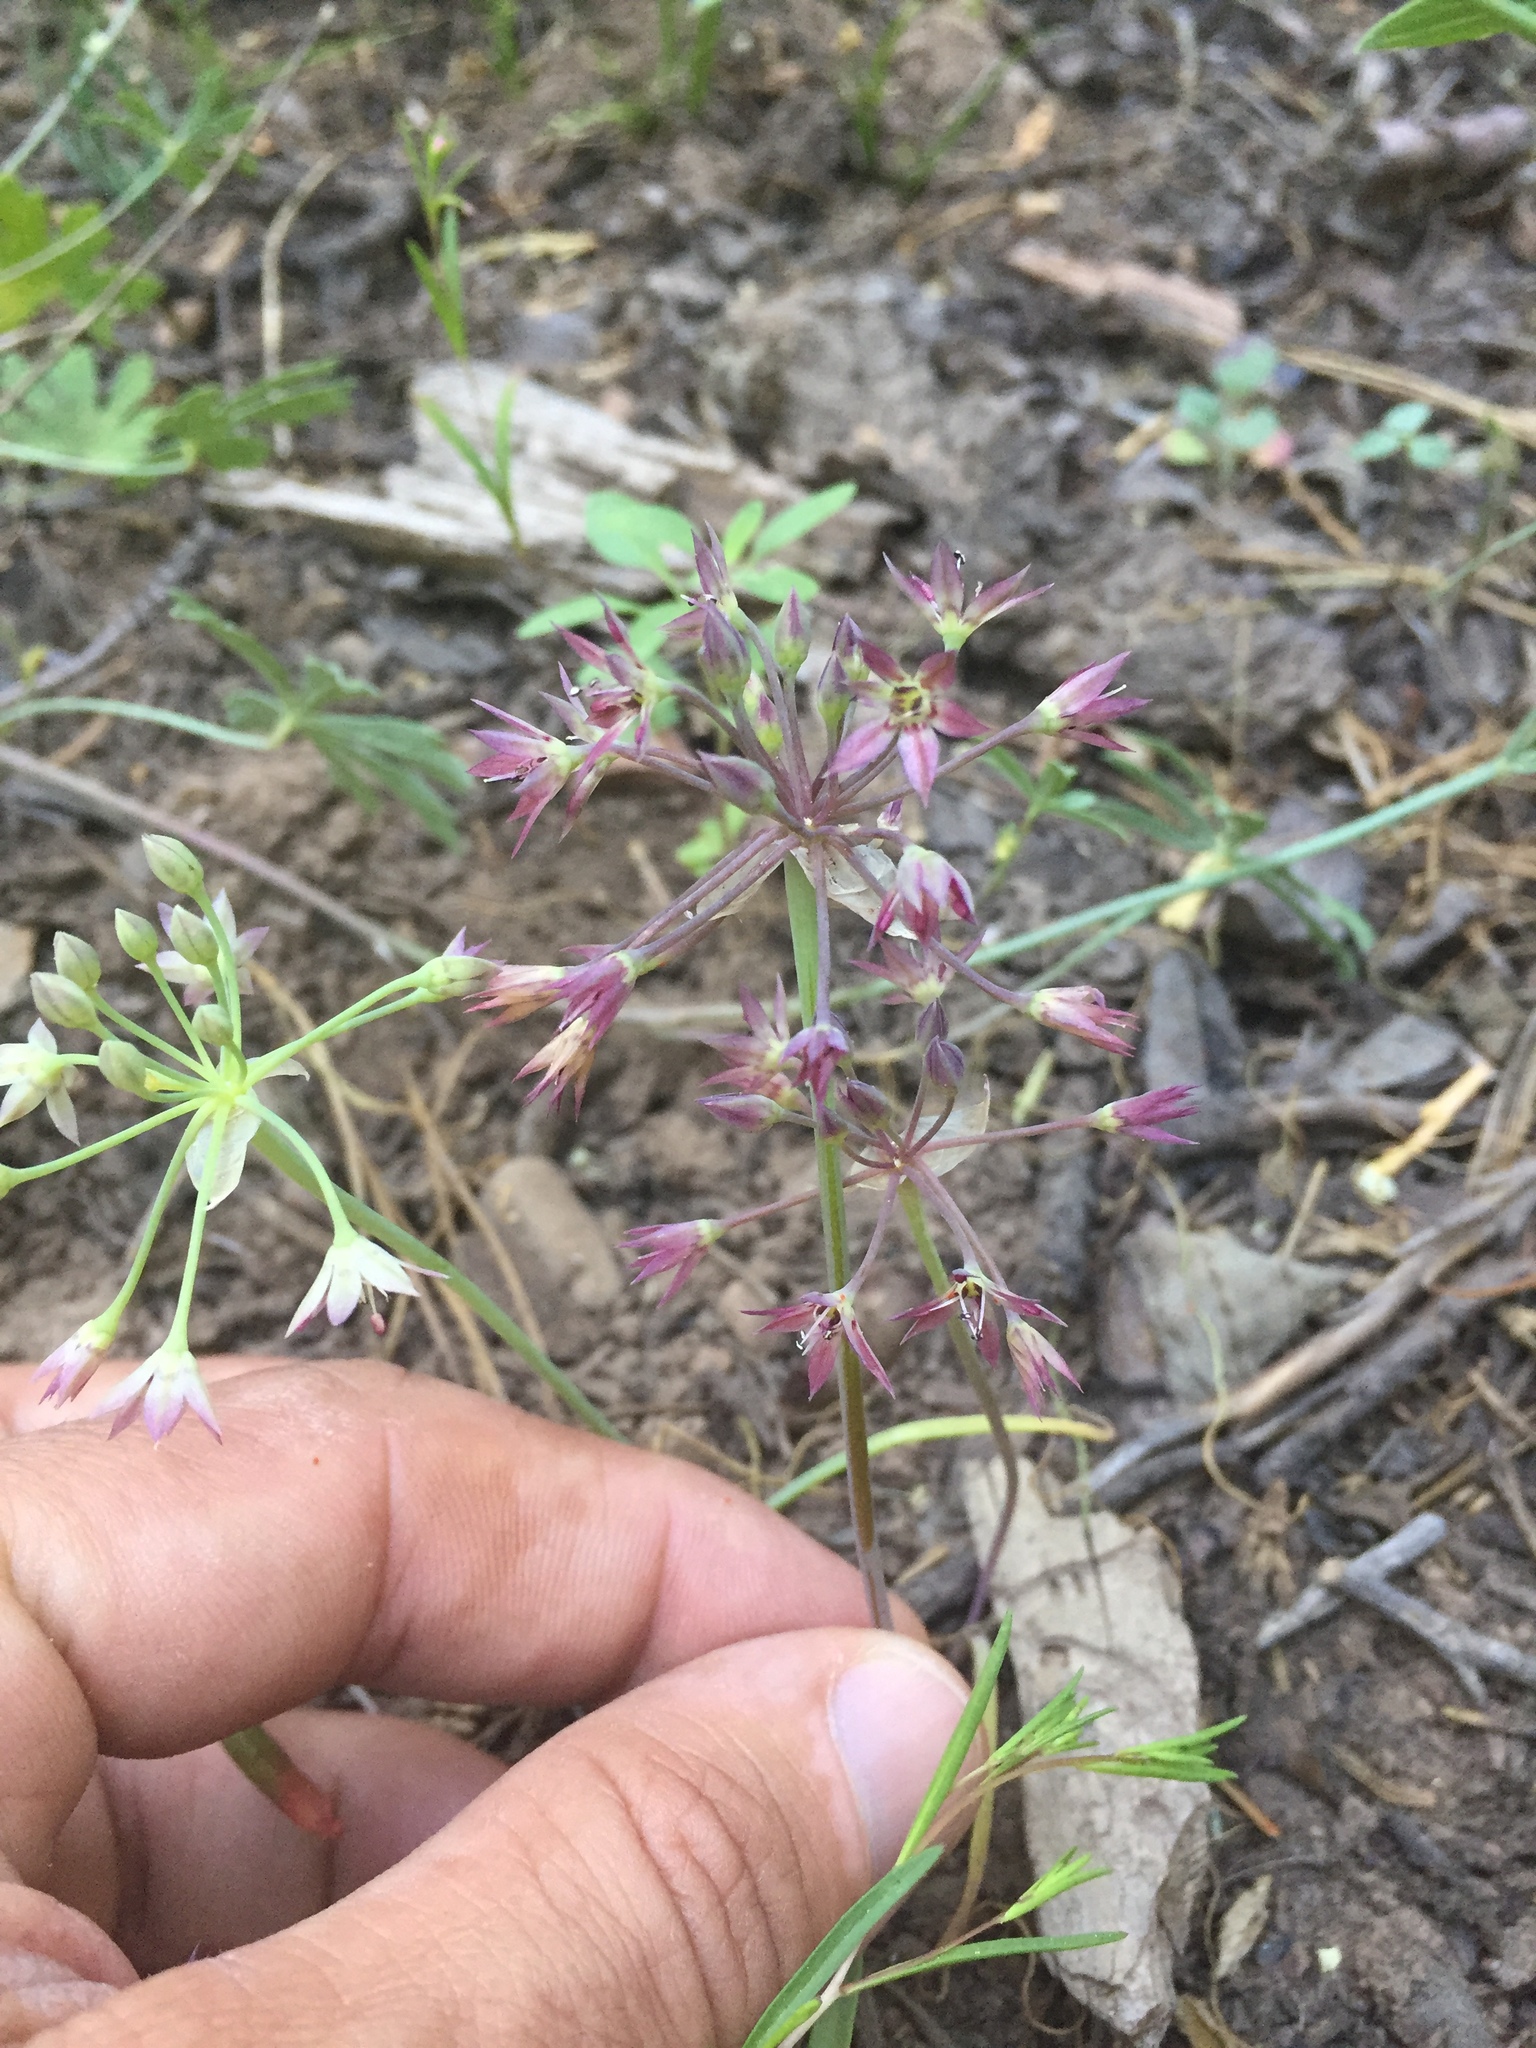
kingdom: Plantae
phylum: Tracheophyta
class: Liliopsida
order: Asparagales
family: Amaryllidaceae
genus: Allium
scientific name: Allium campanulatum
